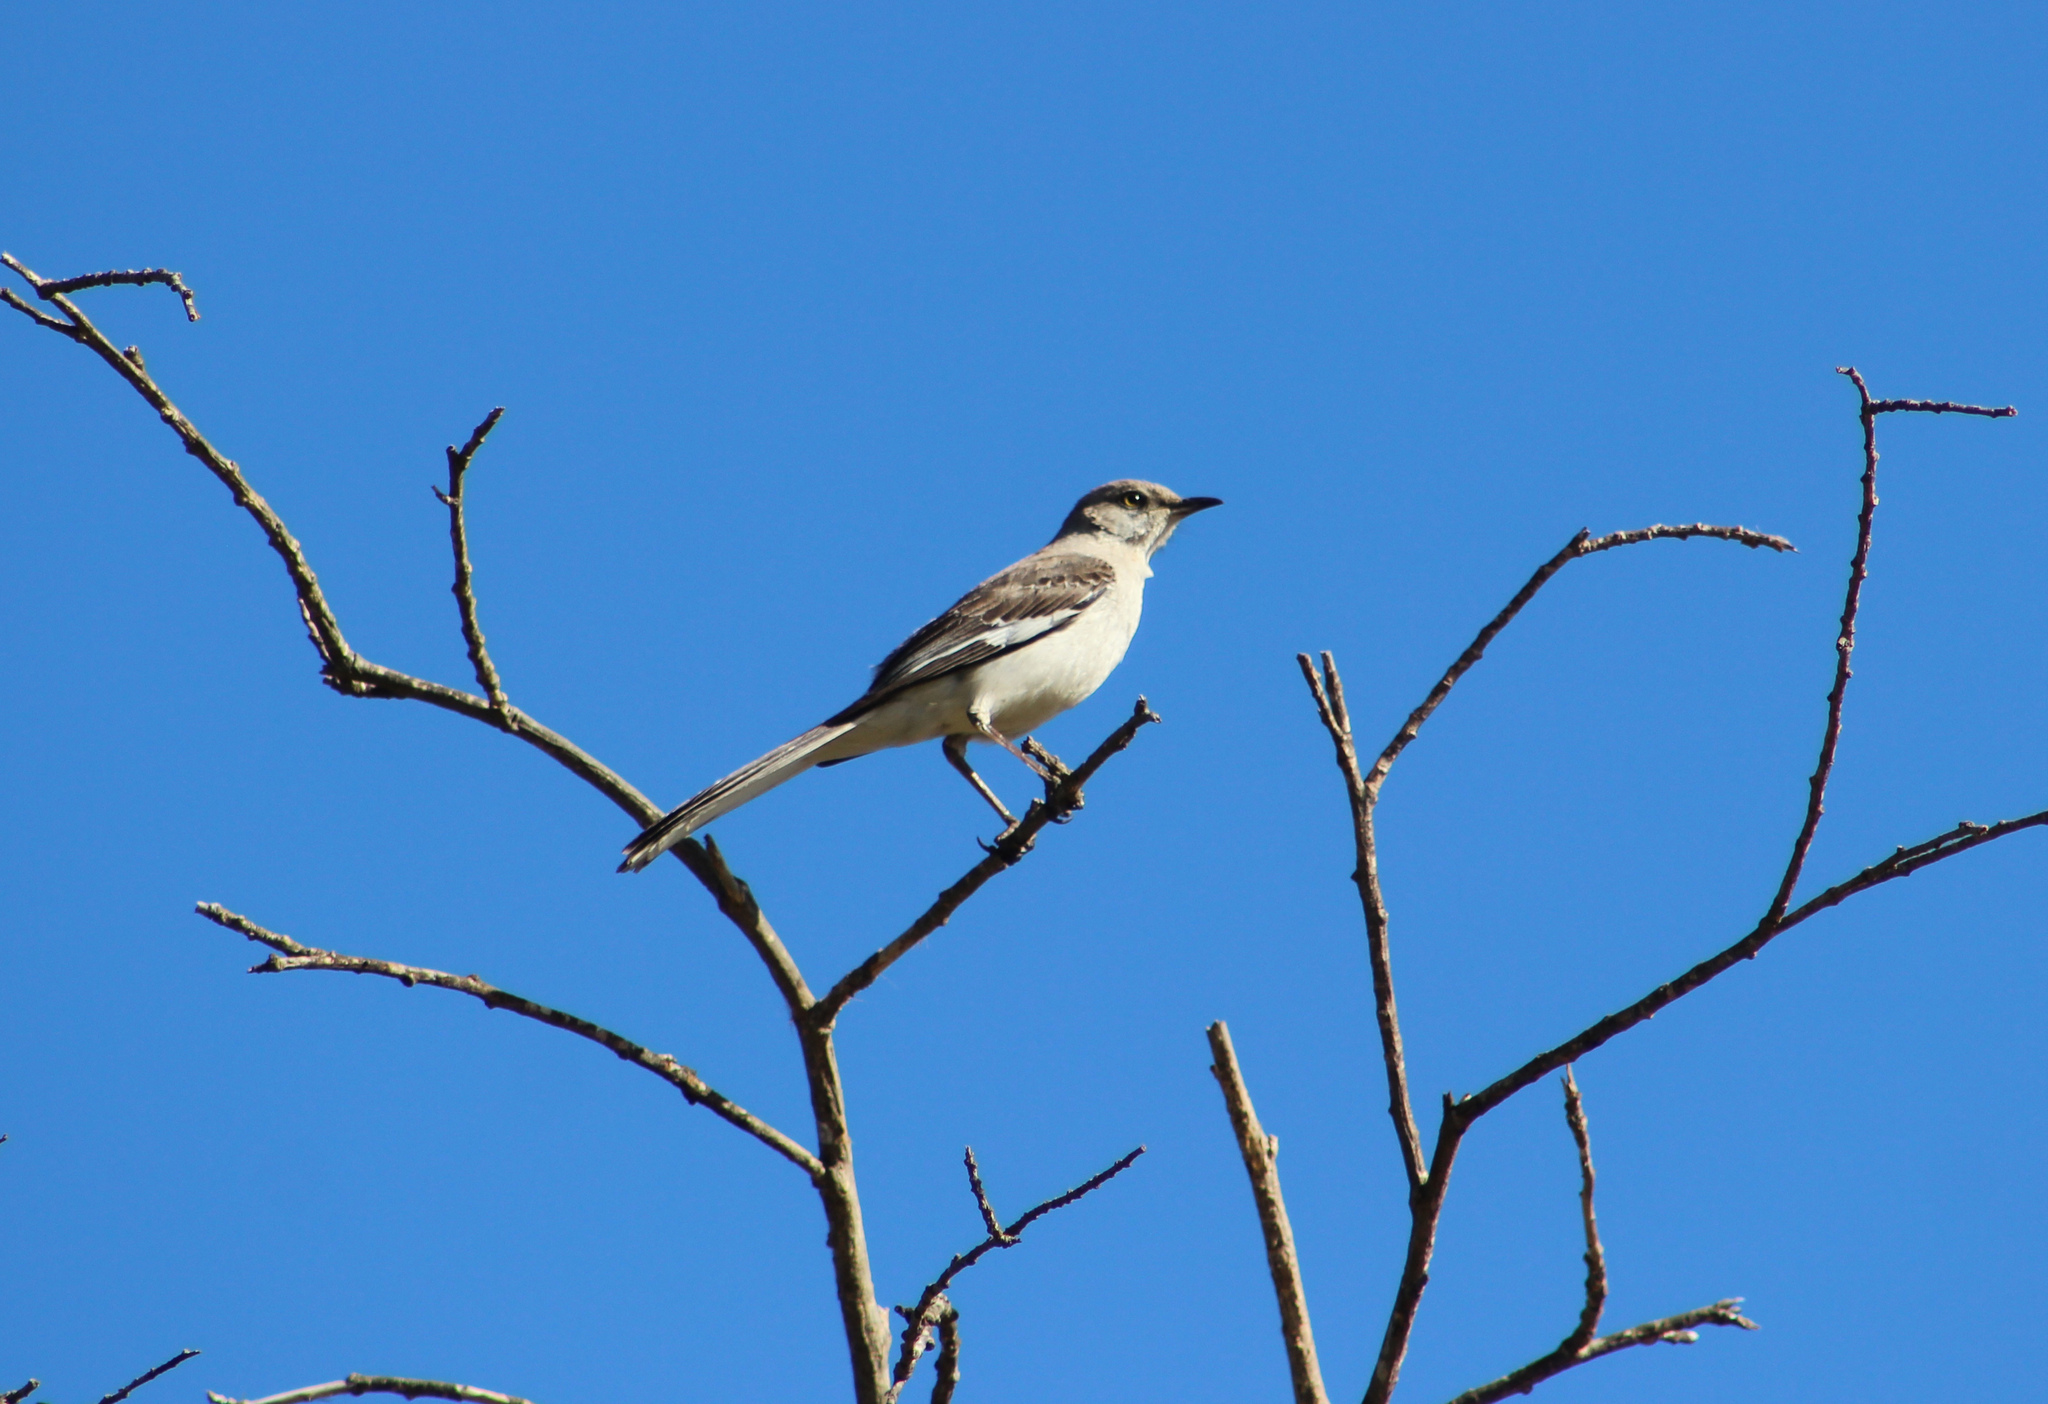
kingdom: Animalia
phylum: Chordata
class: Aves
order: Passeriformes
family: Mimidae
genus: Mimus
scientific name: Mimus polyglottos
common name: Northern mockingbird
